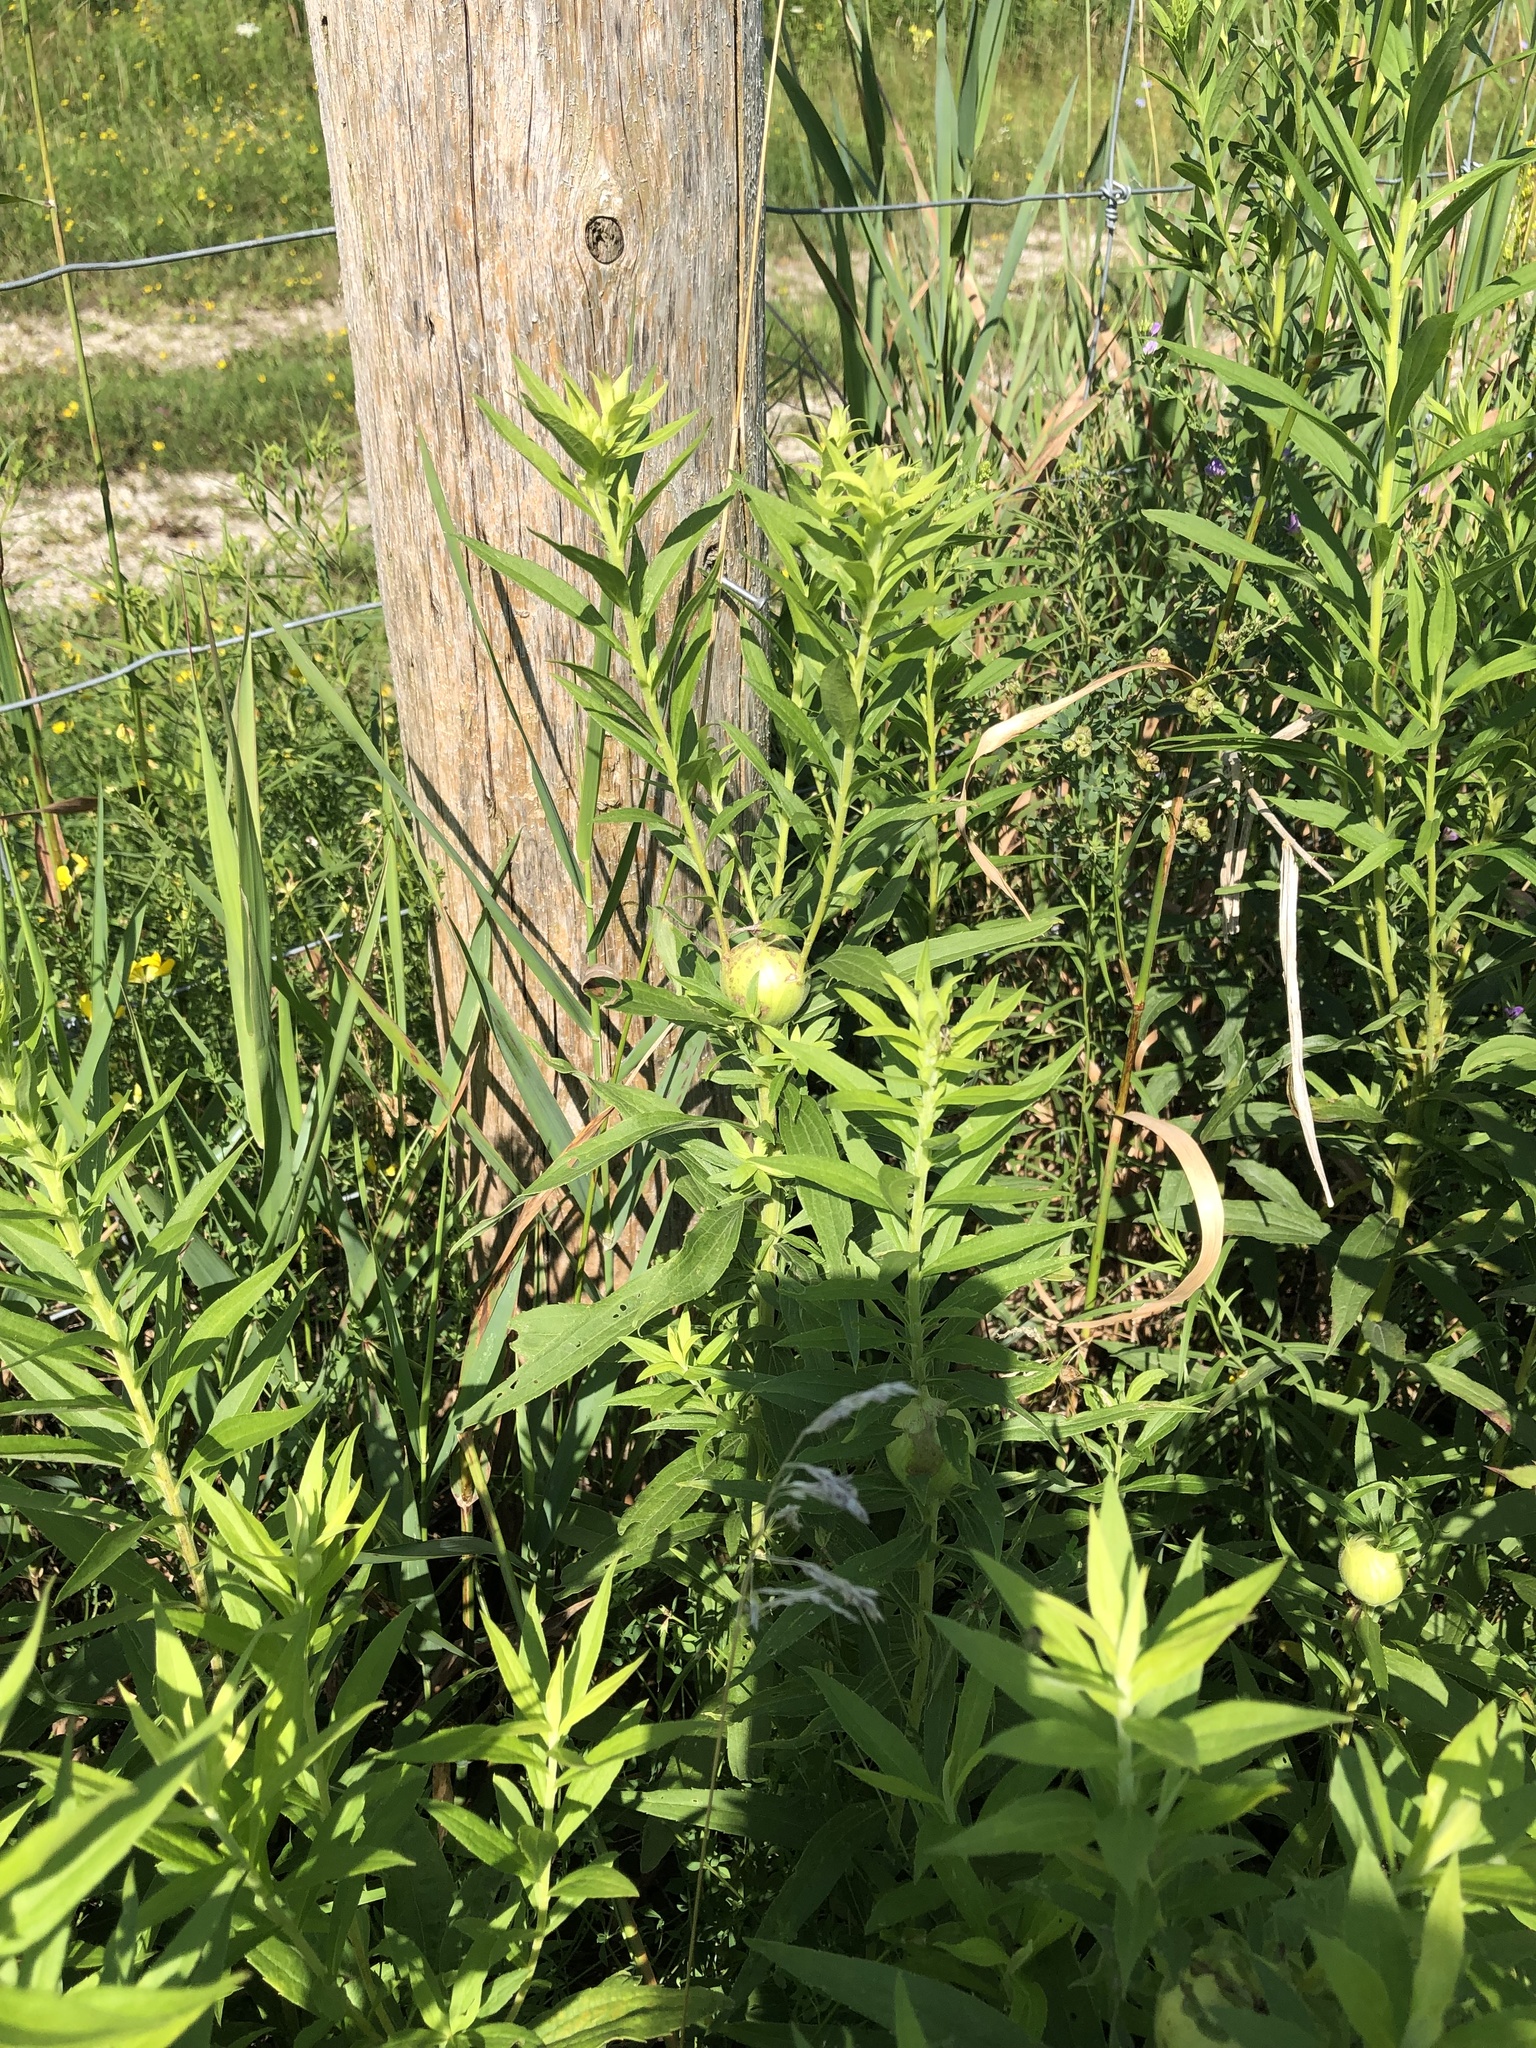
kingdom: Animalia
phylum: Arthropoda
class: Insecta
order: Diptera
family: Tephritidae
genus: Eurosta
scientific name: Eurosta solidaginis
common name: Goldenrod gall fly
